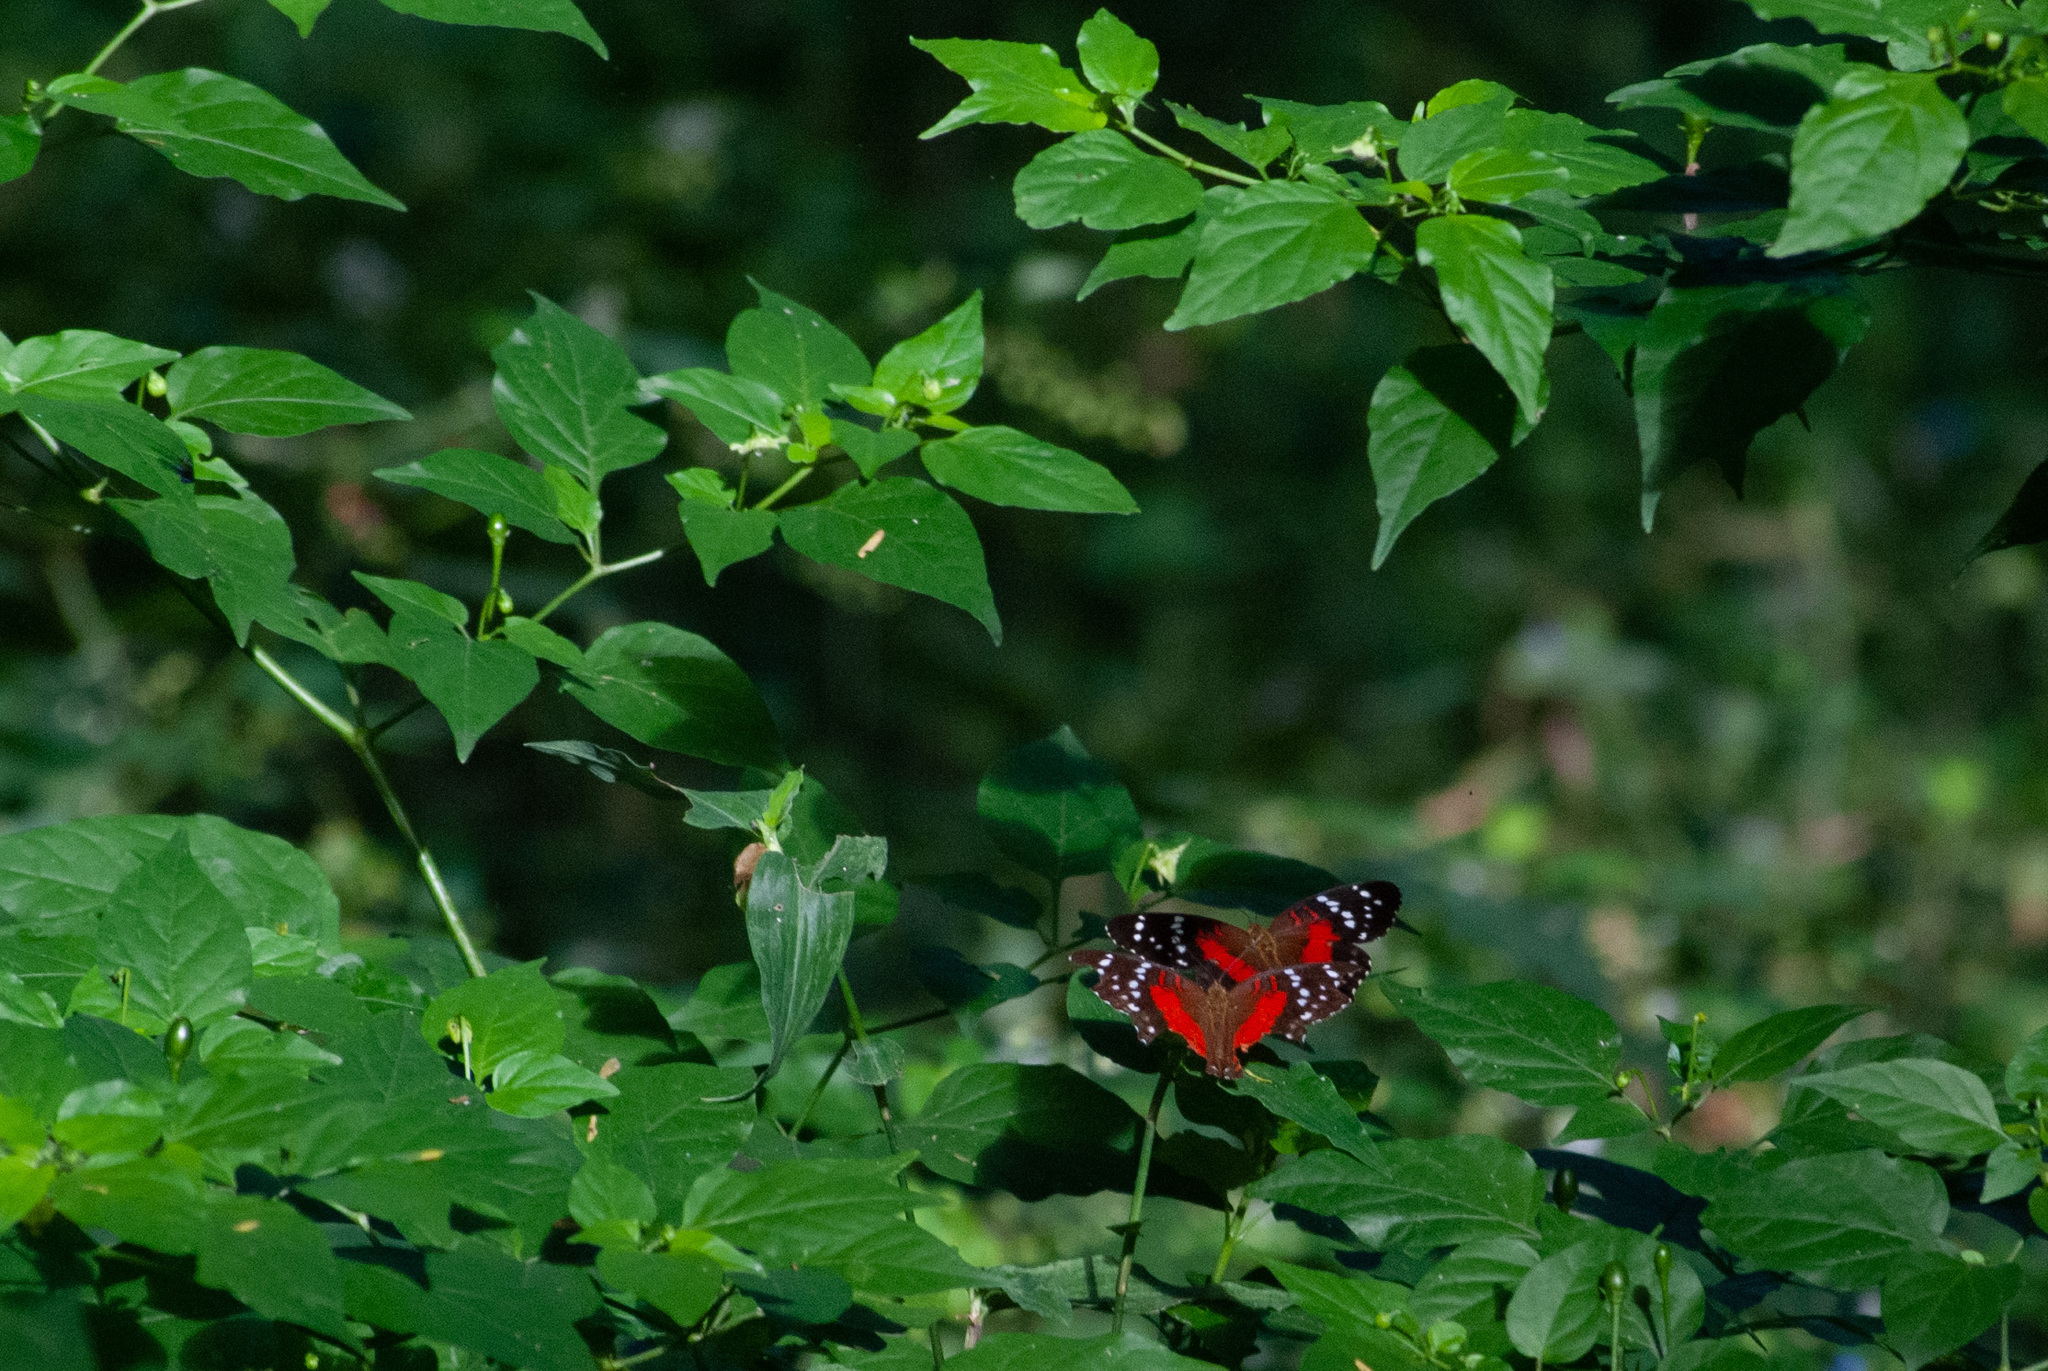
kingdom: Animalia
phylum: Arthropoda
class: Insecta
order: Lepidoptera
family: Nymphalidae
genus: Anartia
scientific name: Anartia amathea
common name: Red peacock
